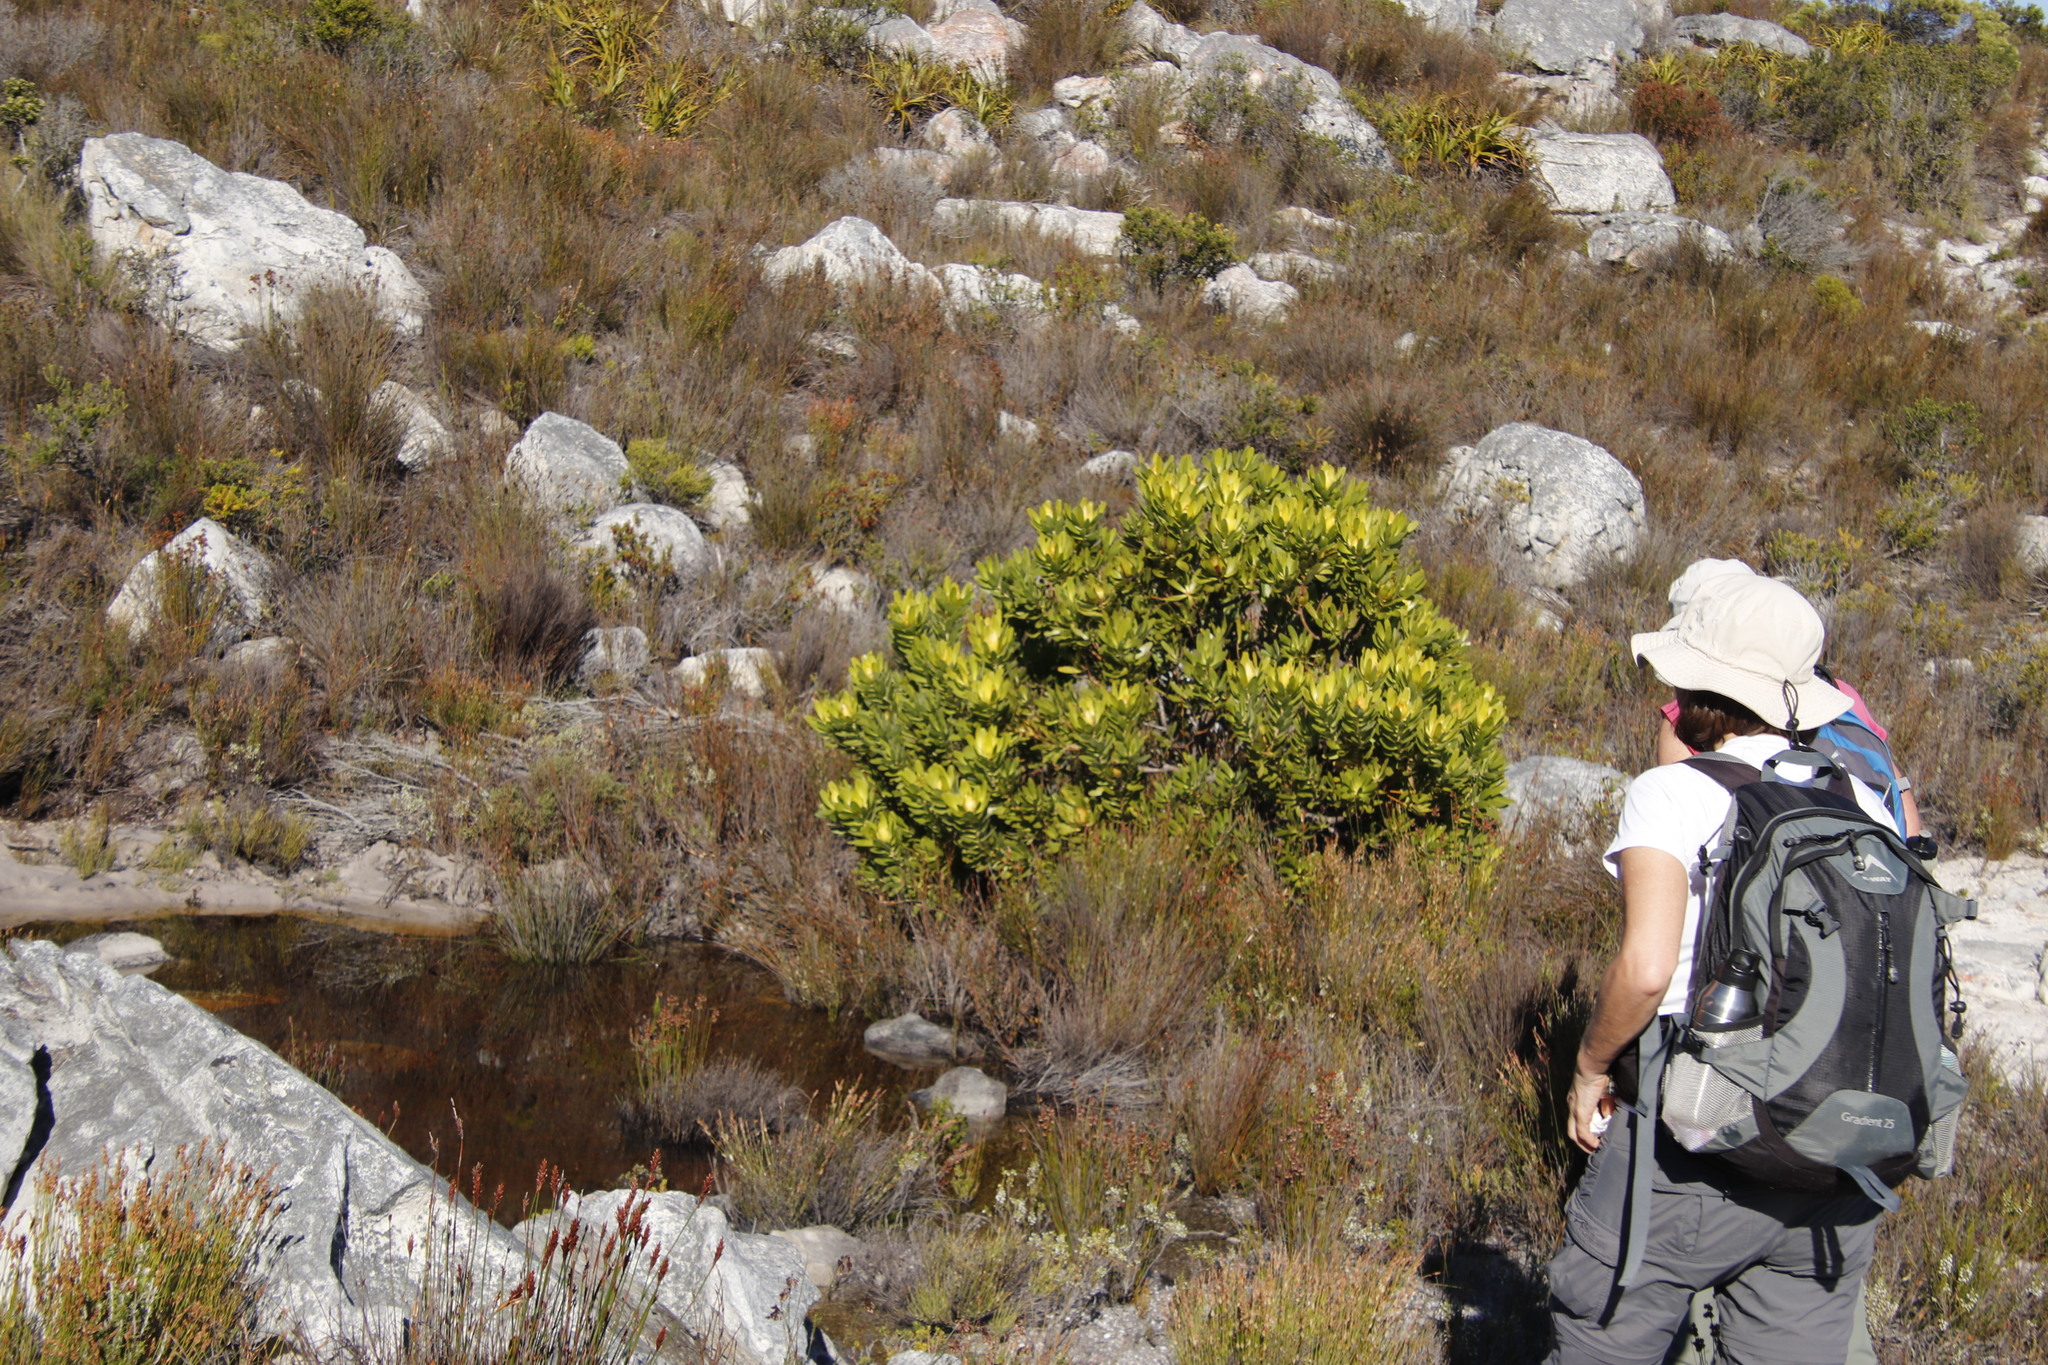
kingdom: Plantae
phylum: Tracheophyta
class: Magnoliopsida
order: Proteales
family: Proteaceae
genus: Leucadendron
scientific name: Leucadendron laureolum
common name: Golden sunshinebush
